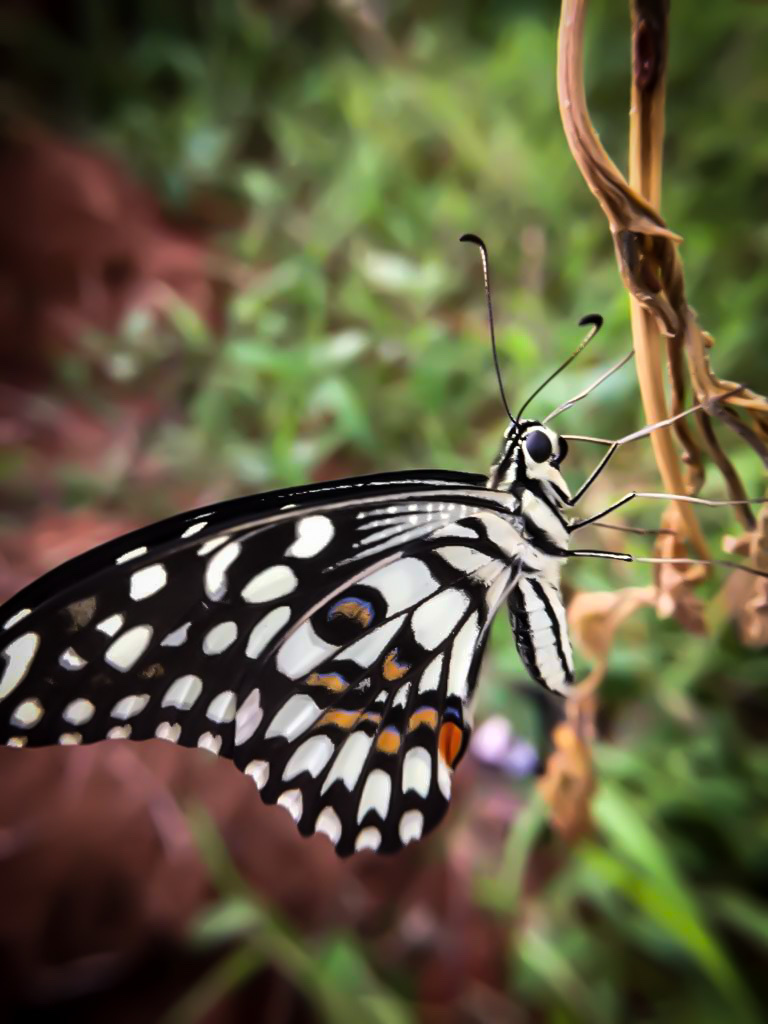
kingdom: Animalia
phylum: Arthropoda
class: Insecta
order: Lepidoptera
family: Papilionidae
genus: Papilio
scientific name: Papilio demoleus
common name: Lime butterfly
